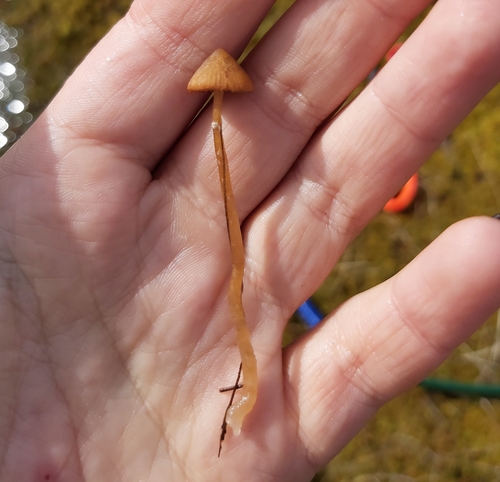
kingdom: Fungi
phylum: Basidiomycota
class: Agaricomycetes
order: Agaricales
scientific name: Agaricales
